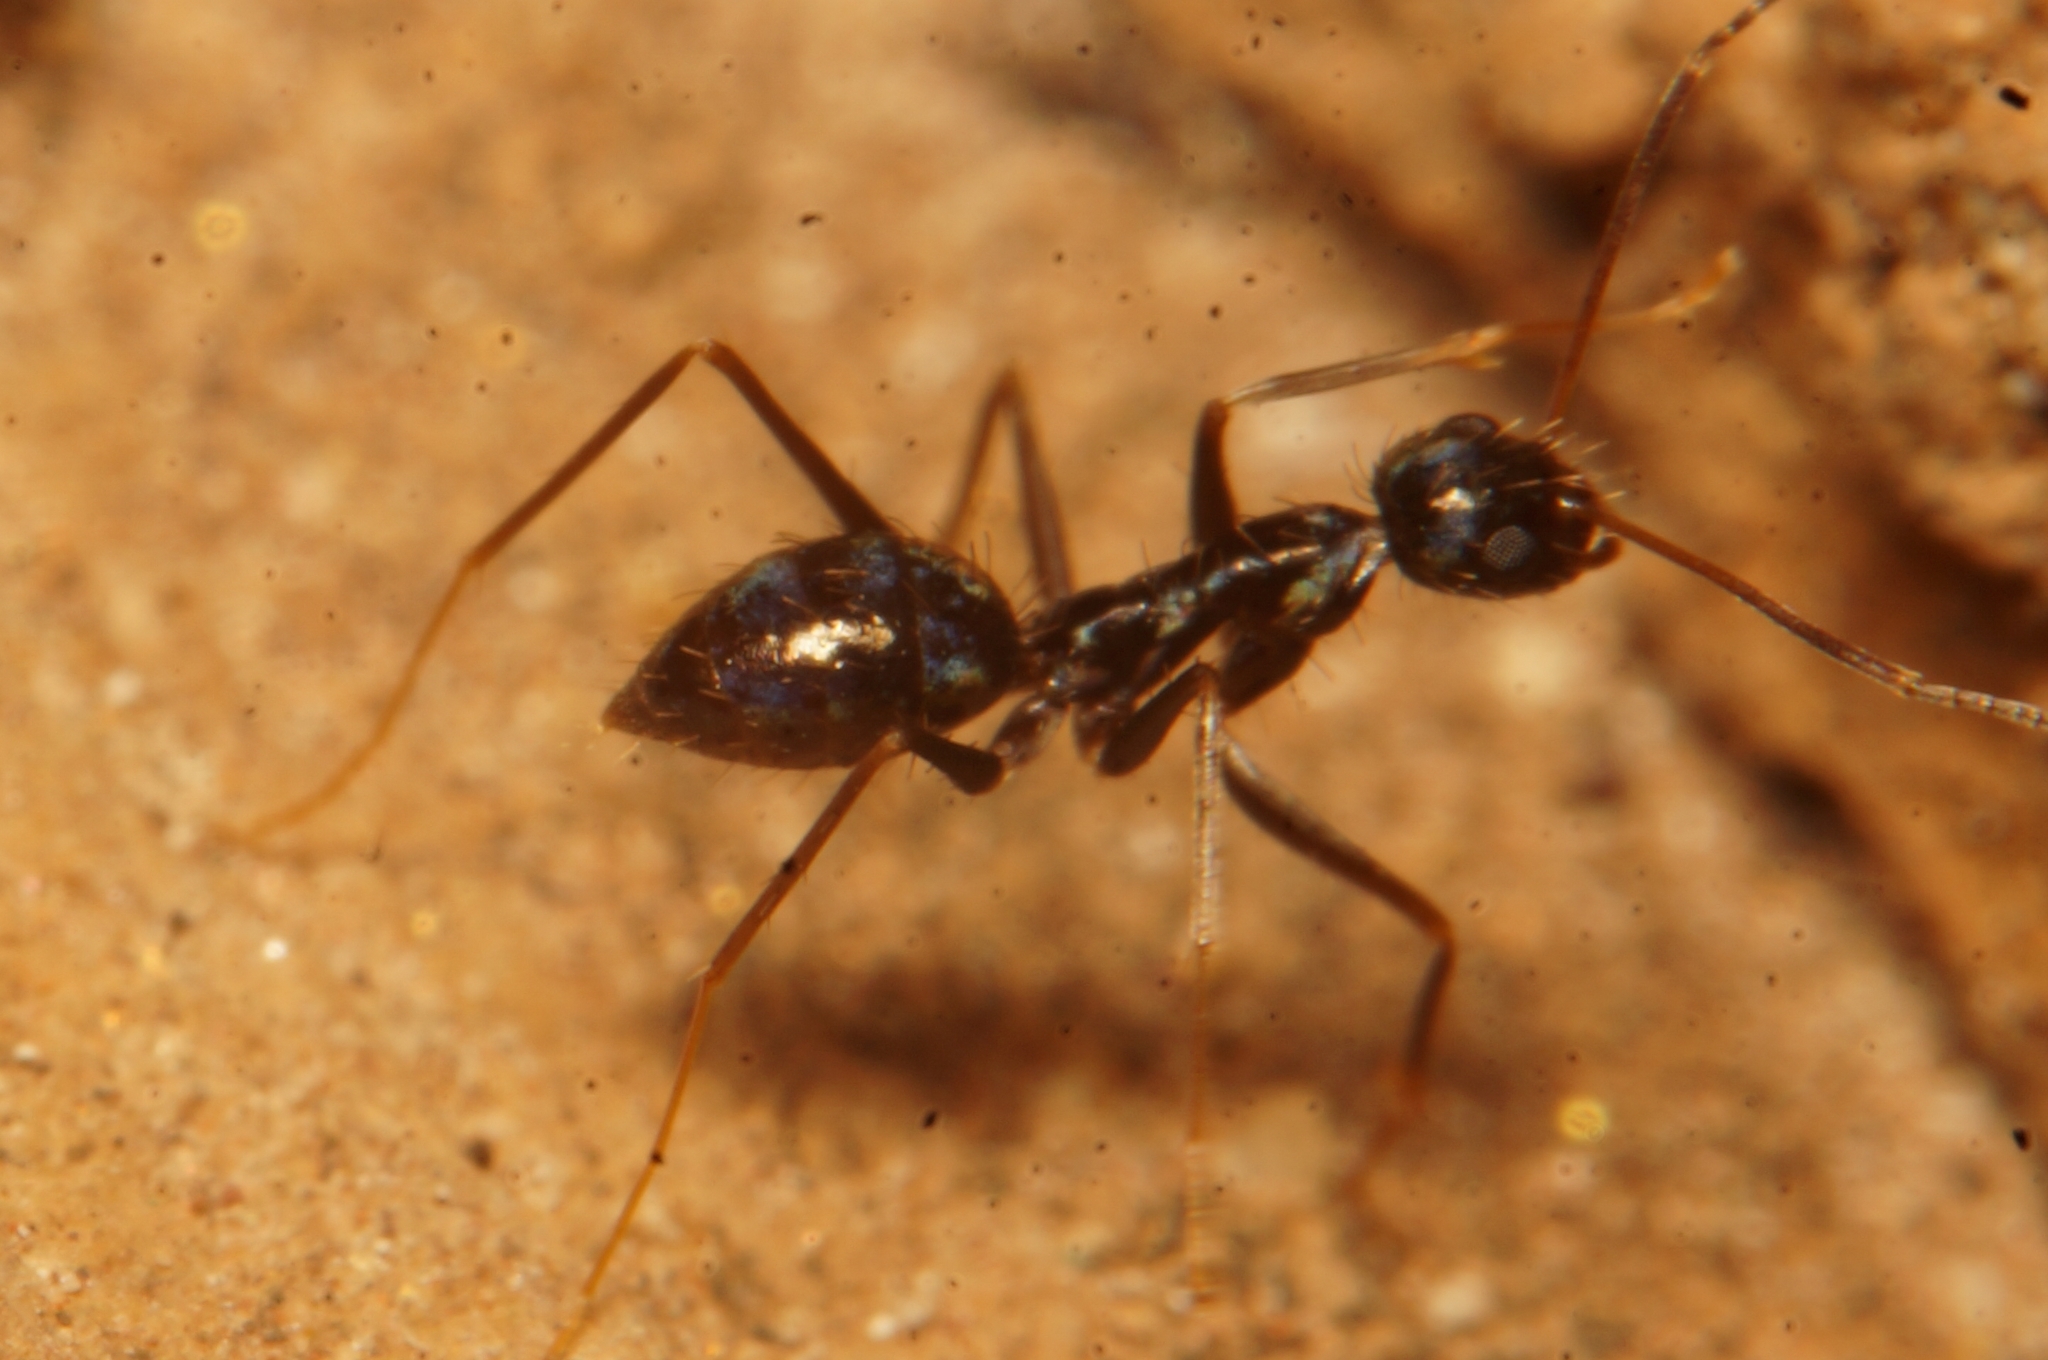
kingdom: Animalia
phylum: Arthropoda
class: Insecta
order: Hymenoptera
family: Formicidae
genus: Paratrechina
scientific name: Paratrechina longicornis
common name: Longhorned crazy ant
